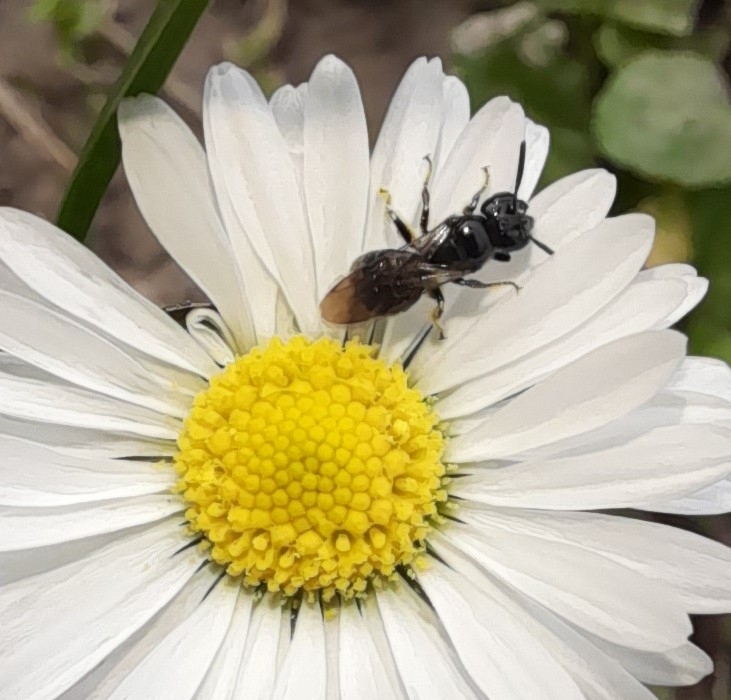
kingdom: Animalia
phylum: Arthropoda
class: Insecta
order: Hymenoptera
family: Apidae
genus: Ceratina
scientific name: Ceratina cucurbitina
